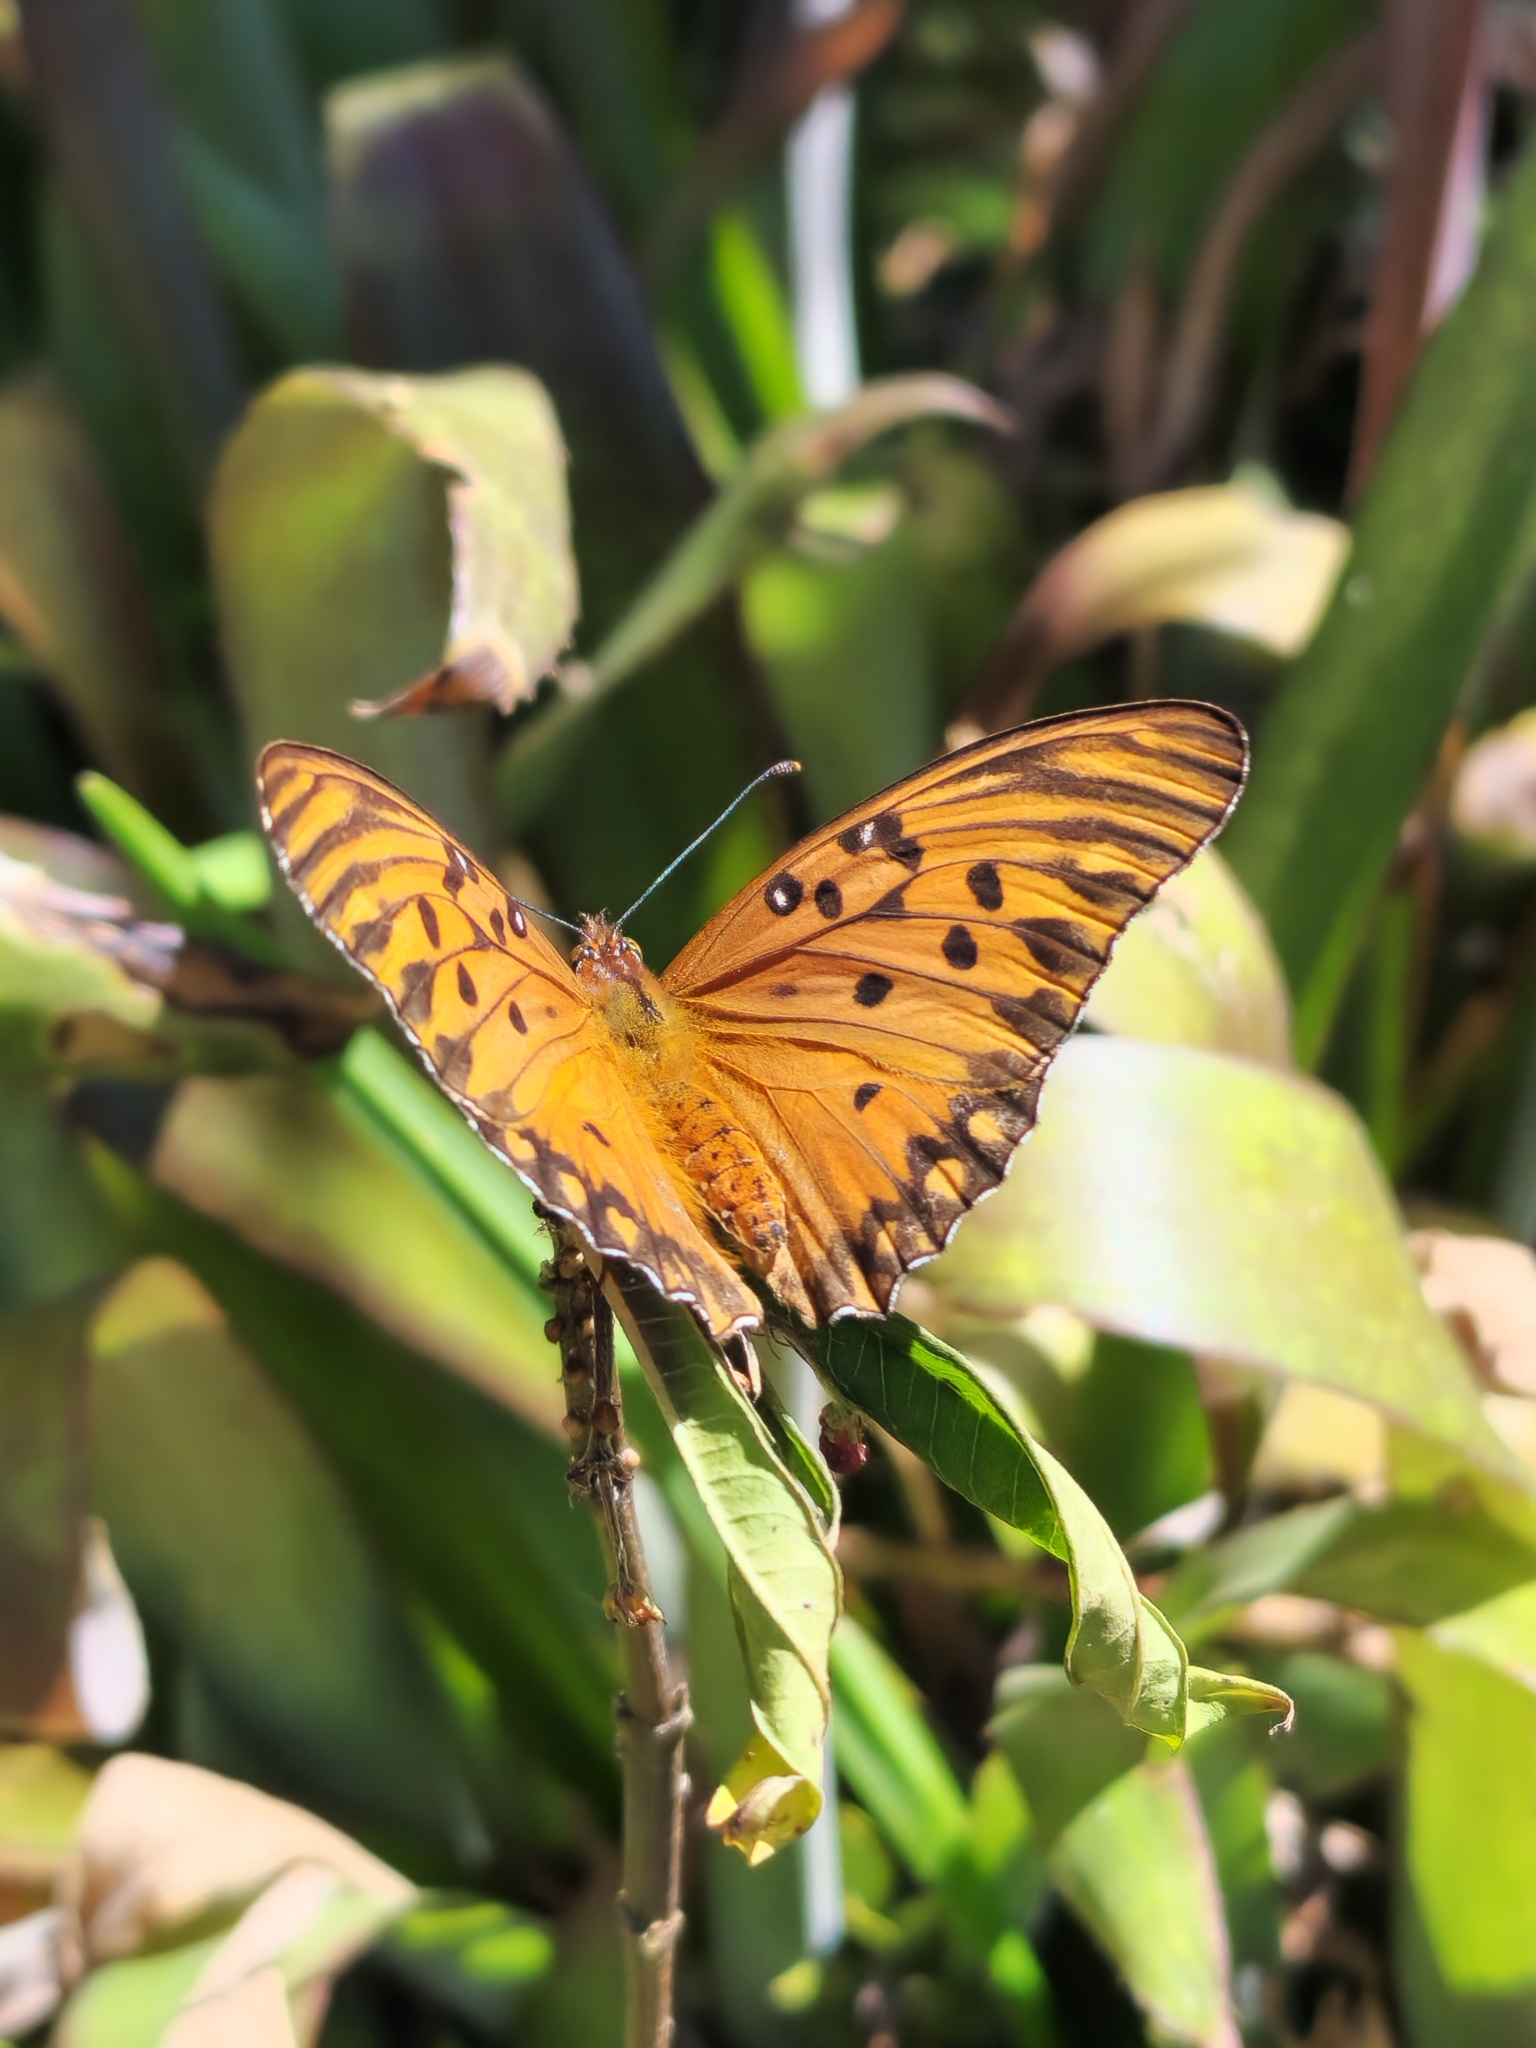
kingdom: Animalia
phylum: Arthropoda
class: Insecta
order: Lepidoptera
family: Nymphalidae
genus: Dione
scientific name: Dione vanillae
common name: Gulf fritillary
